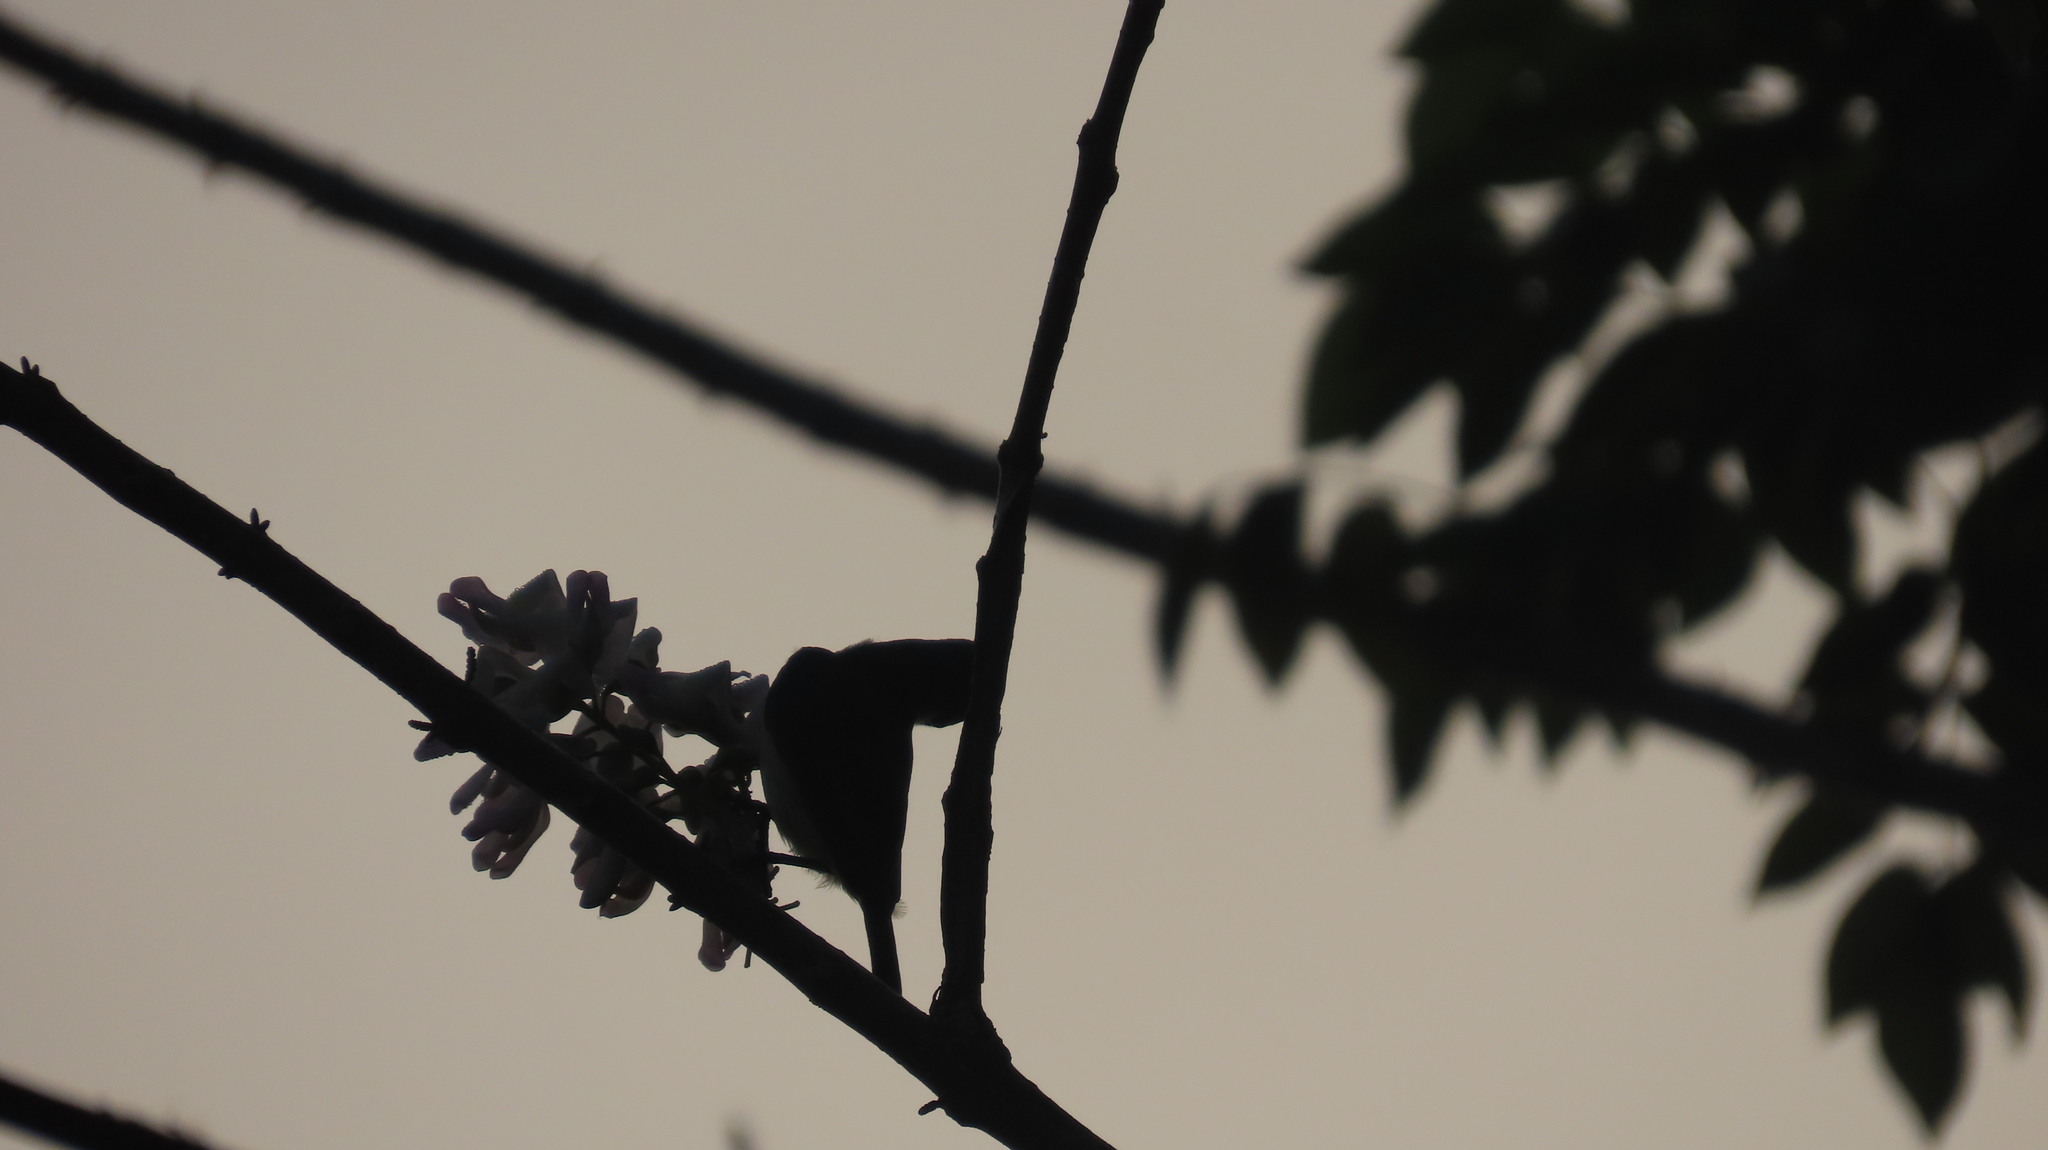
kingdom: Animalia
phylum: Chordata
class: Aves
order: Passeriformes
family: Nectariniidae
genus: Cinnyris
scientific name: Cinnyris lotenius
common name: Loten's sunbird
